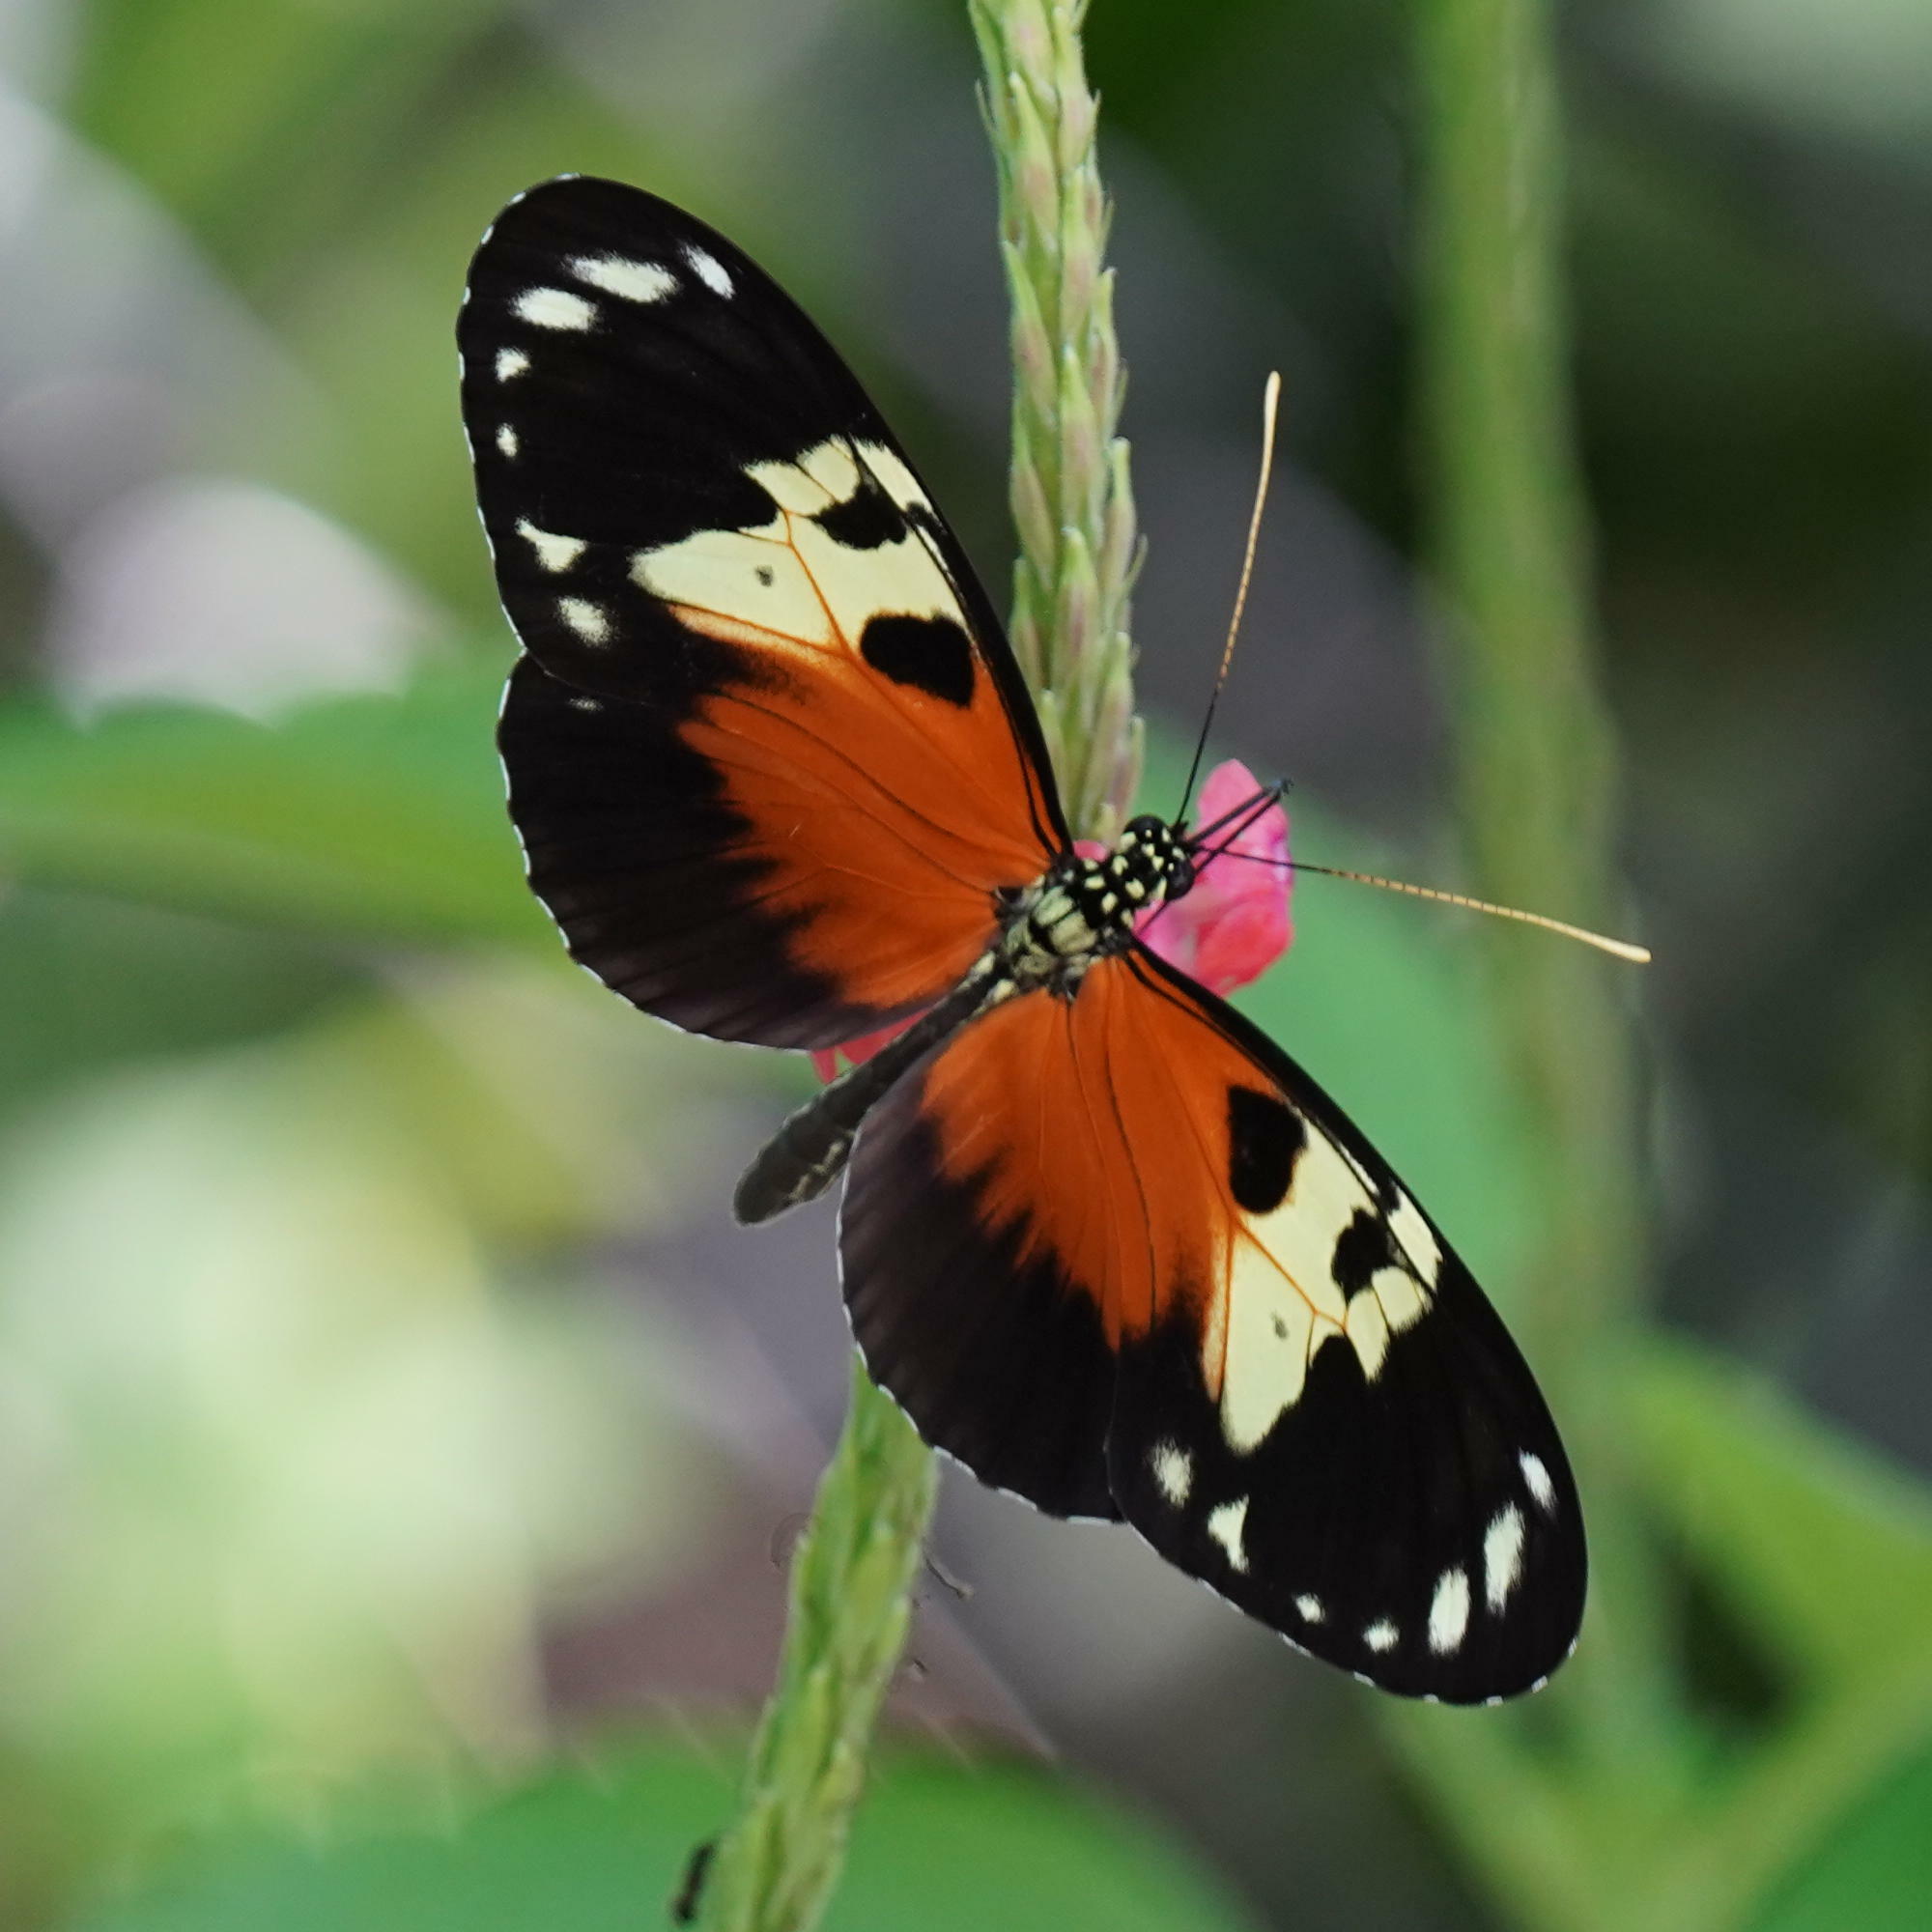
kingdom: Animalia
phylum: Arthropoda
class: Insecta
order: Lepidoptera
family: Nymphalidae
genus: Heliconius
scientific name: Heliconius hecale
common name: Tiger longwing
